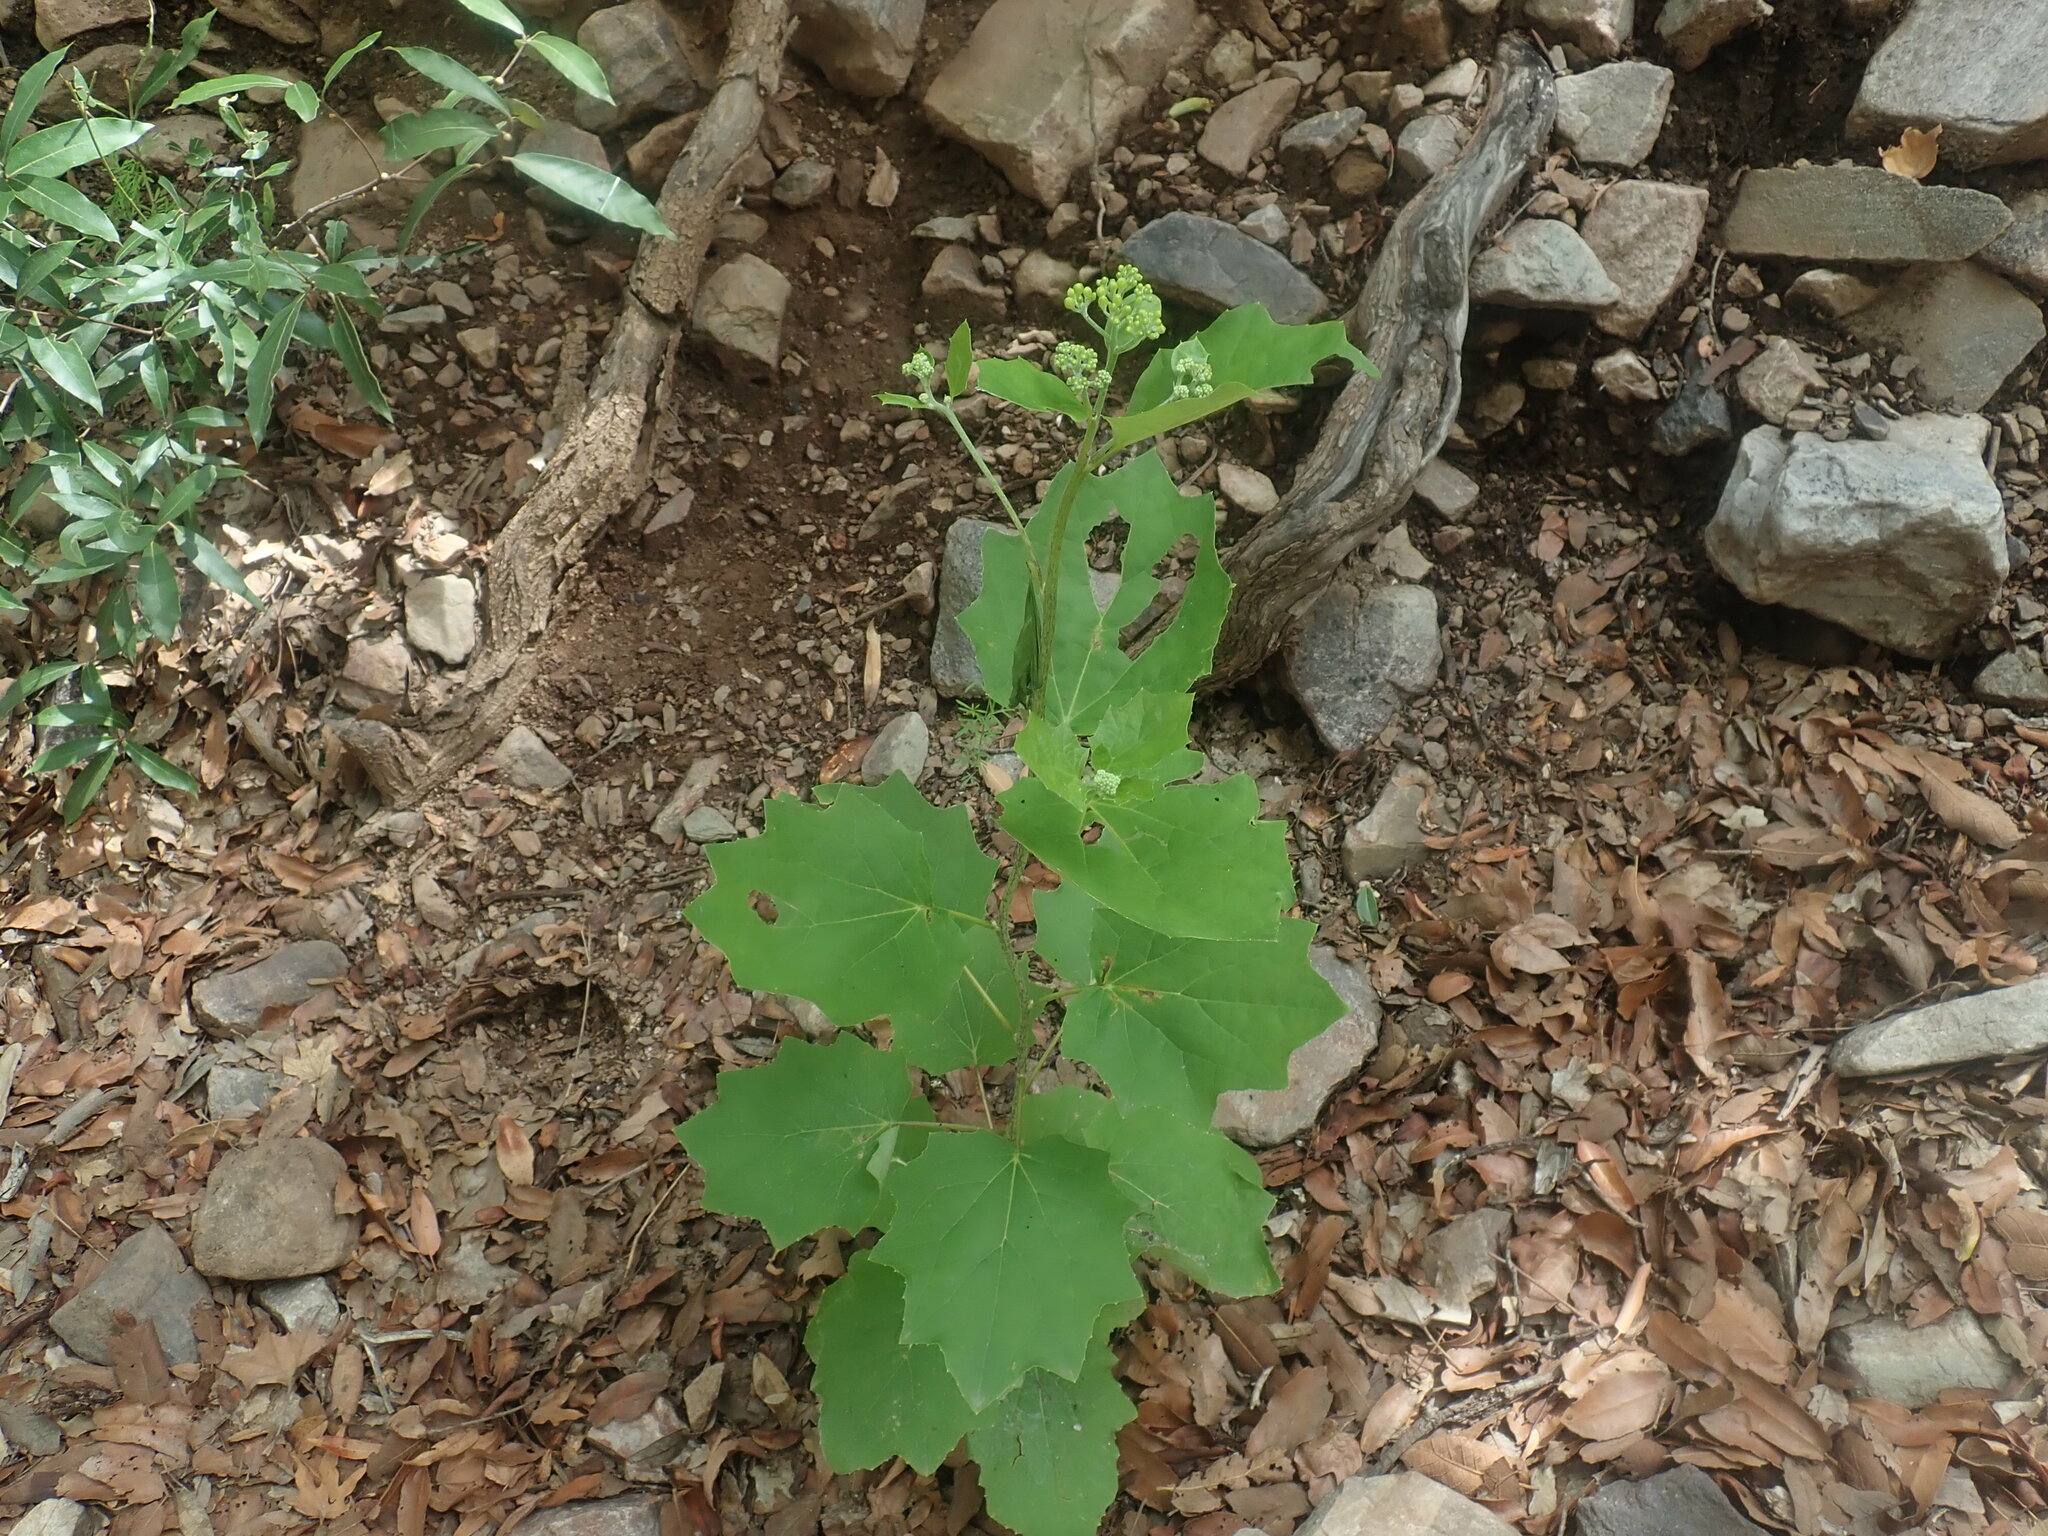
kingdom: Plantae
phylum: Tracheophyta
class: Magnoliopsida
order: Asterales
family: Asteraceae
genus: Roldana
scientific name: Roldana hartwegii
